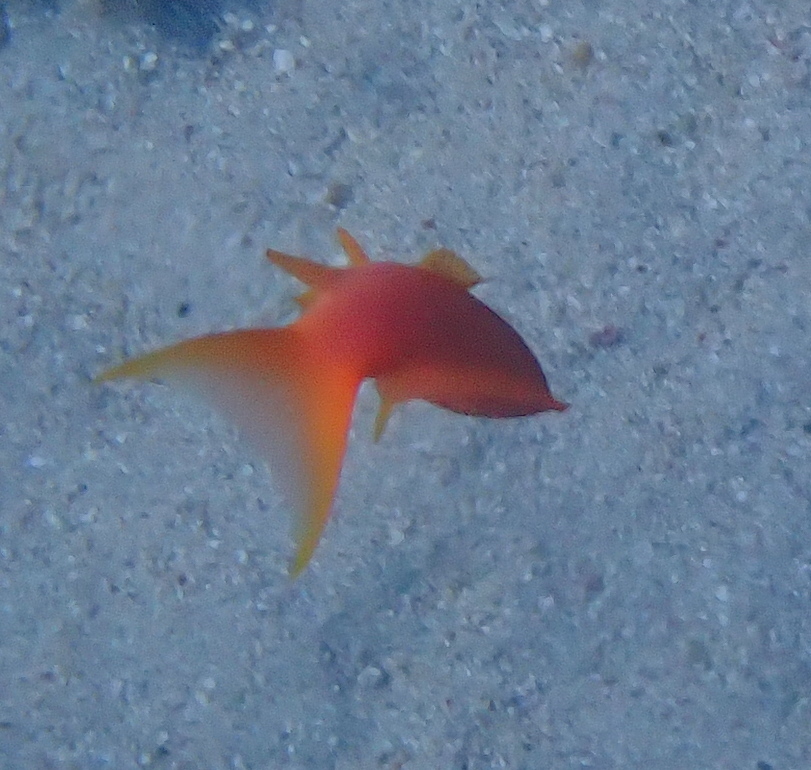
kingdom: Animalia
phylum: Chordata
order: Perciformes
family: Serranidae
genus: Pseudanthias
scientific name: Pseudanthias squamipinnis
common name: Scalefin anthias
